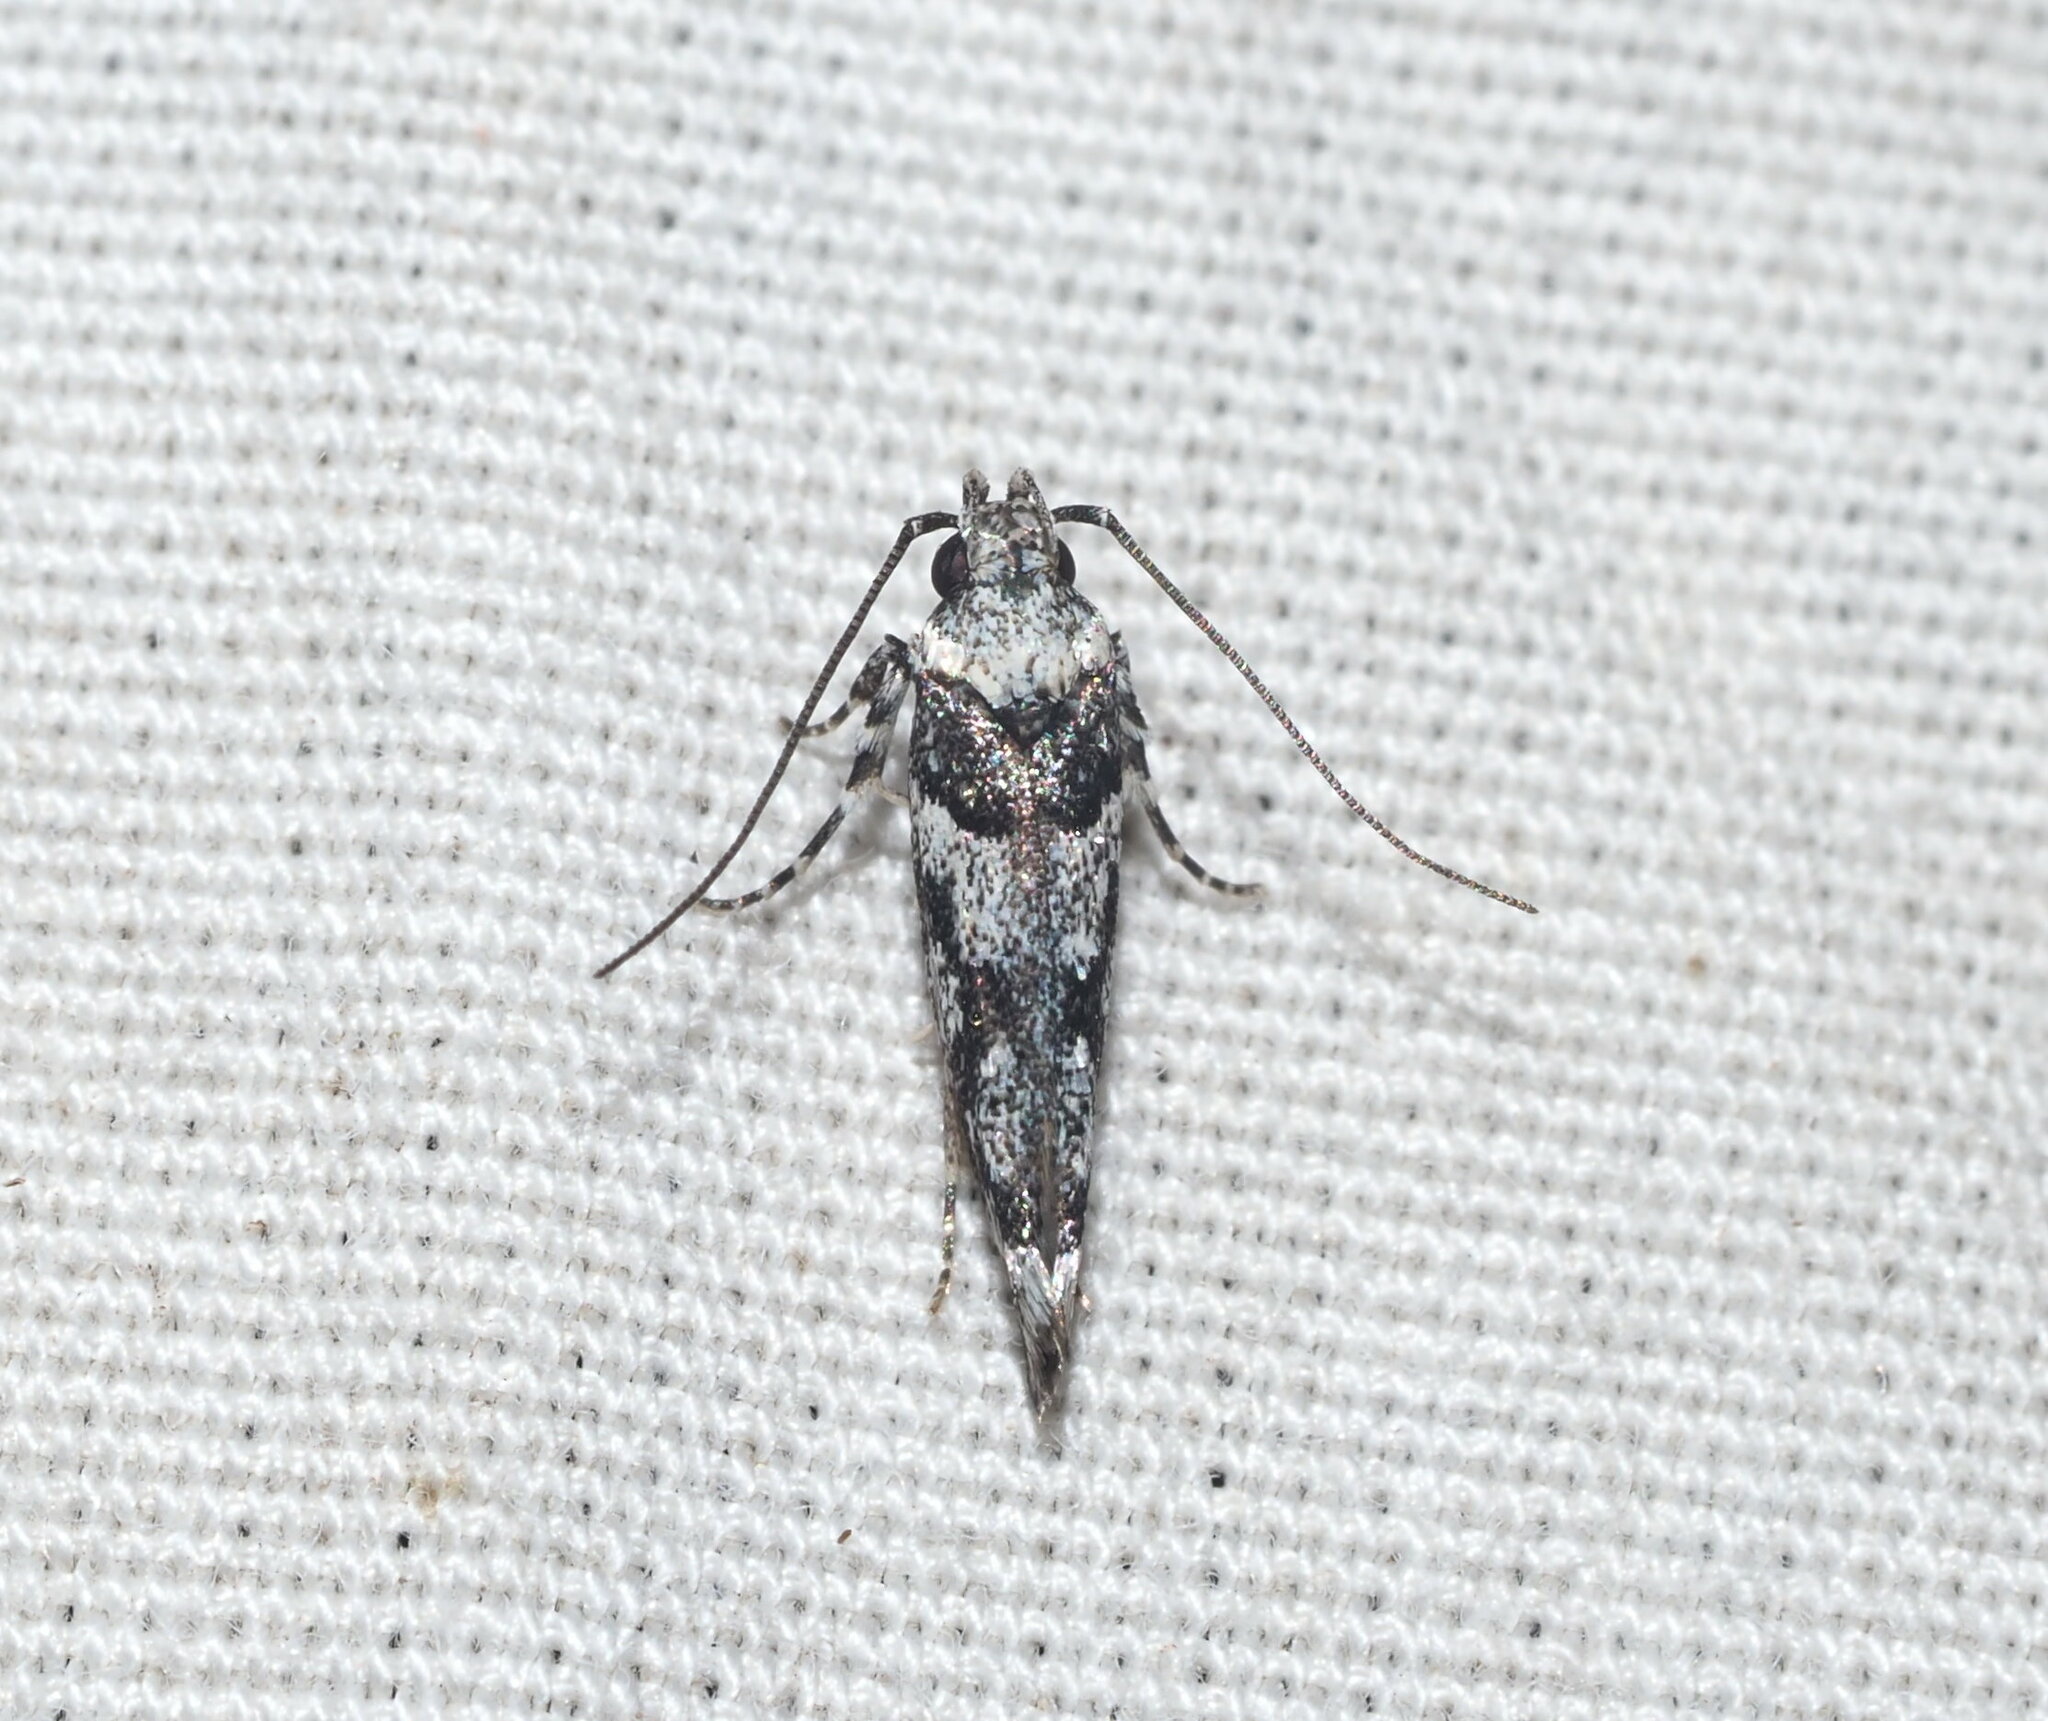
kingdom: Animalia
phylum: Arthropoda
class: Insecta
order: Lepidoptera
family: Cosmopterigidae
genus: Hyposmochoma
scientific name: Hyposmochoma empedota
